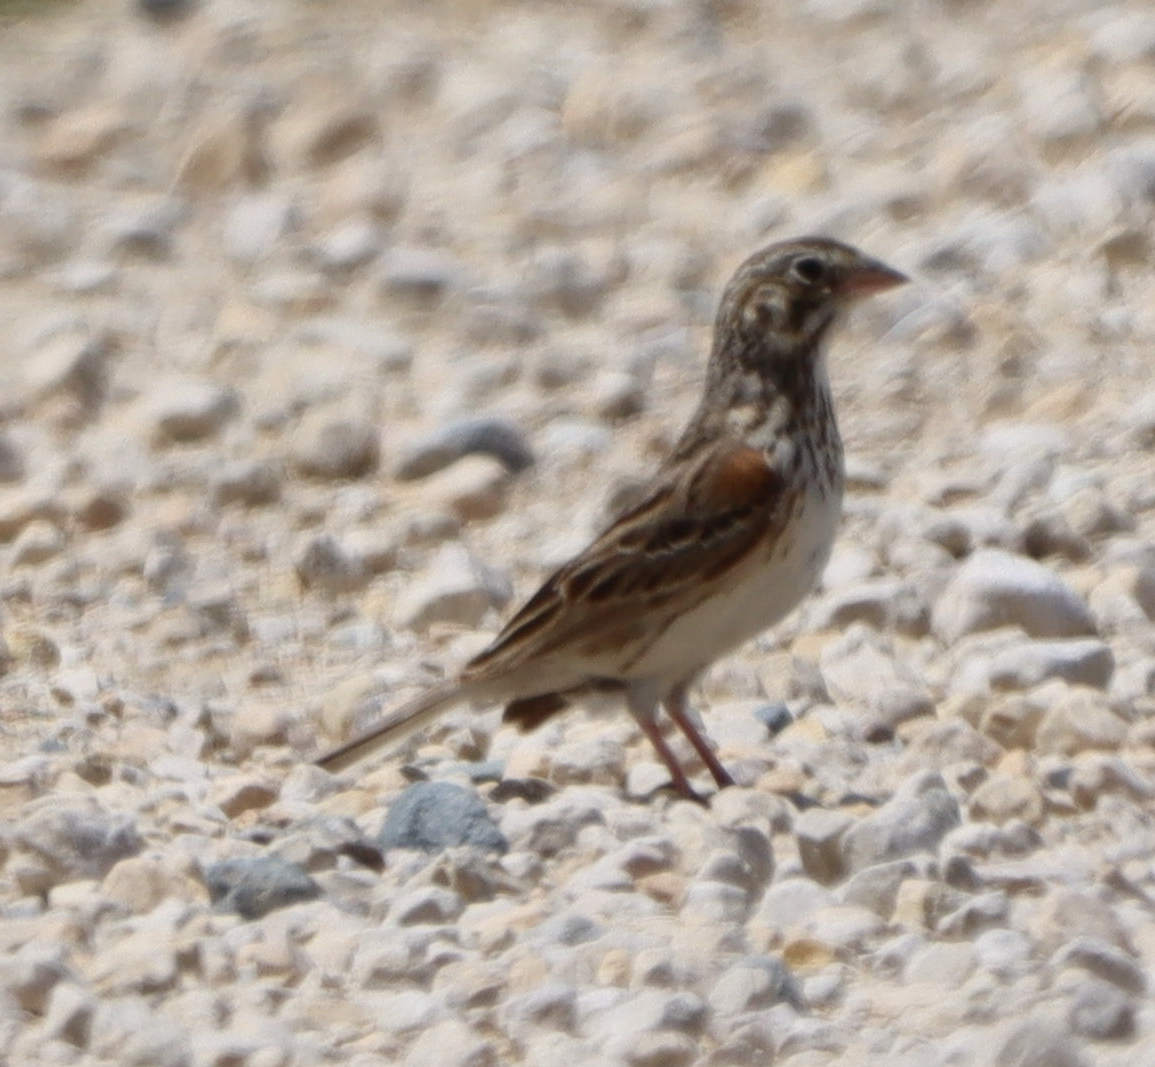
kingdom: Animalia
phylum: Chordata
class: Aves
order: Passeriformes
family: Passerellidae
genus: Pooecetes
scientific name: Pooecetes gramineus
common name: Vesper sparrow
